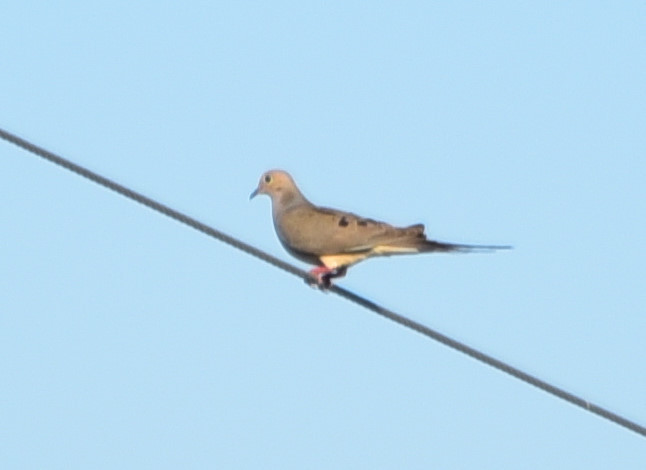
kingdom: Animalia
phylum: Chordata
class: Aves
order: Columbiformes
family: Columbidae
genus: Zenaida
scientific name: Zenaida macroura
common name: Mourning dove
